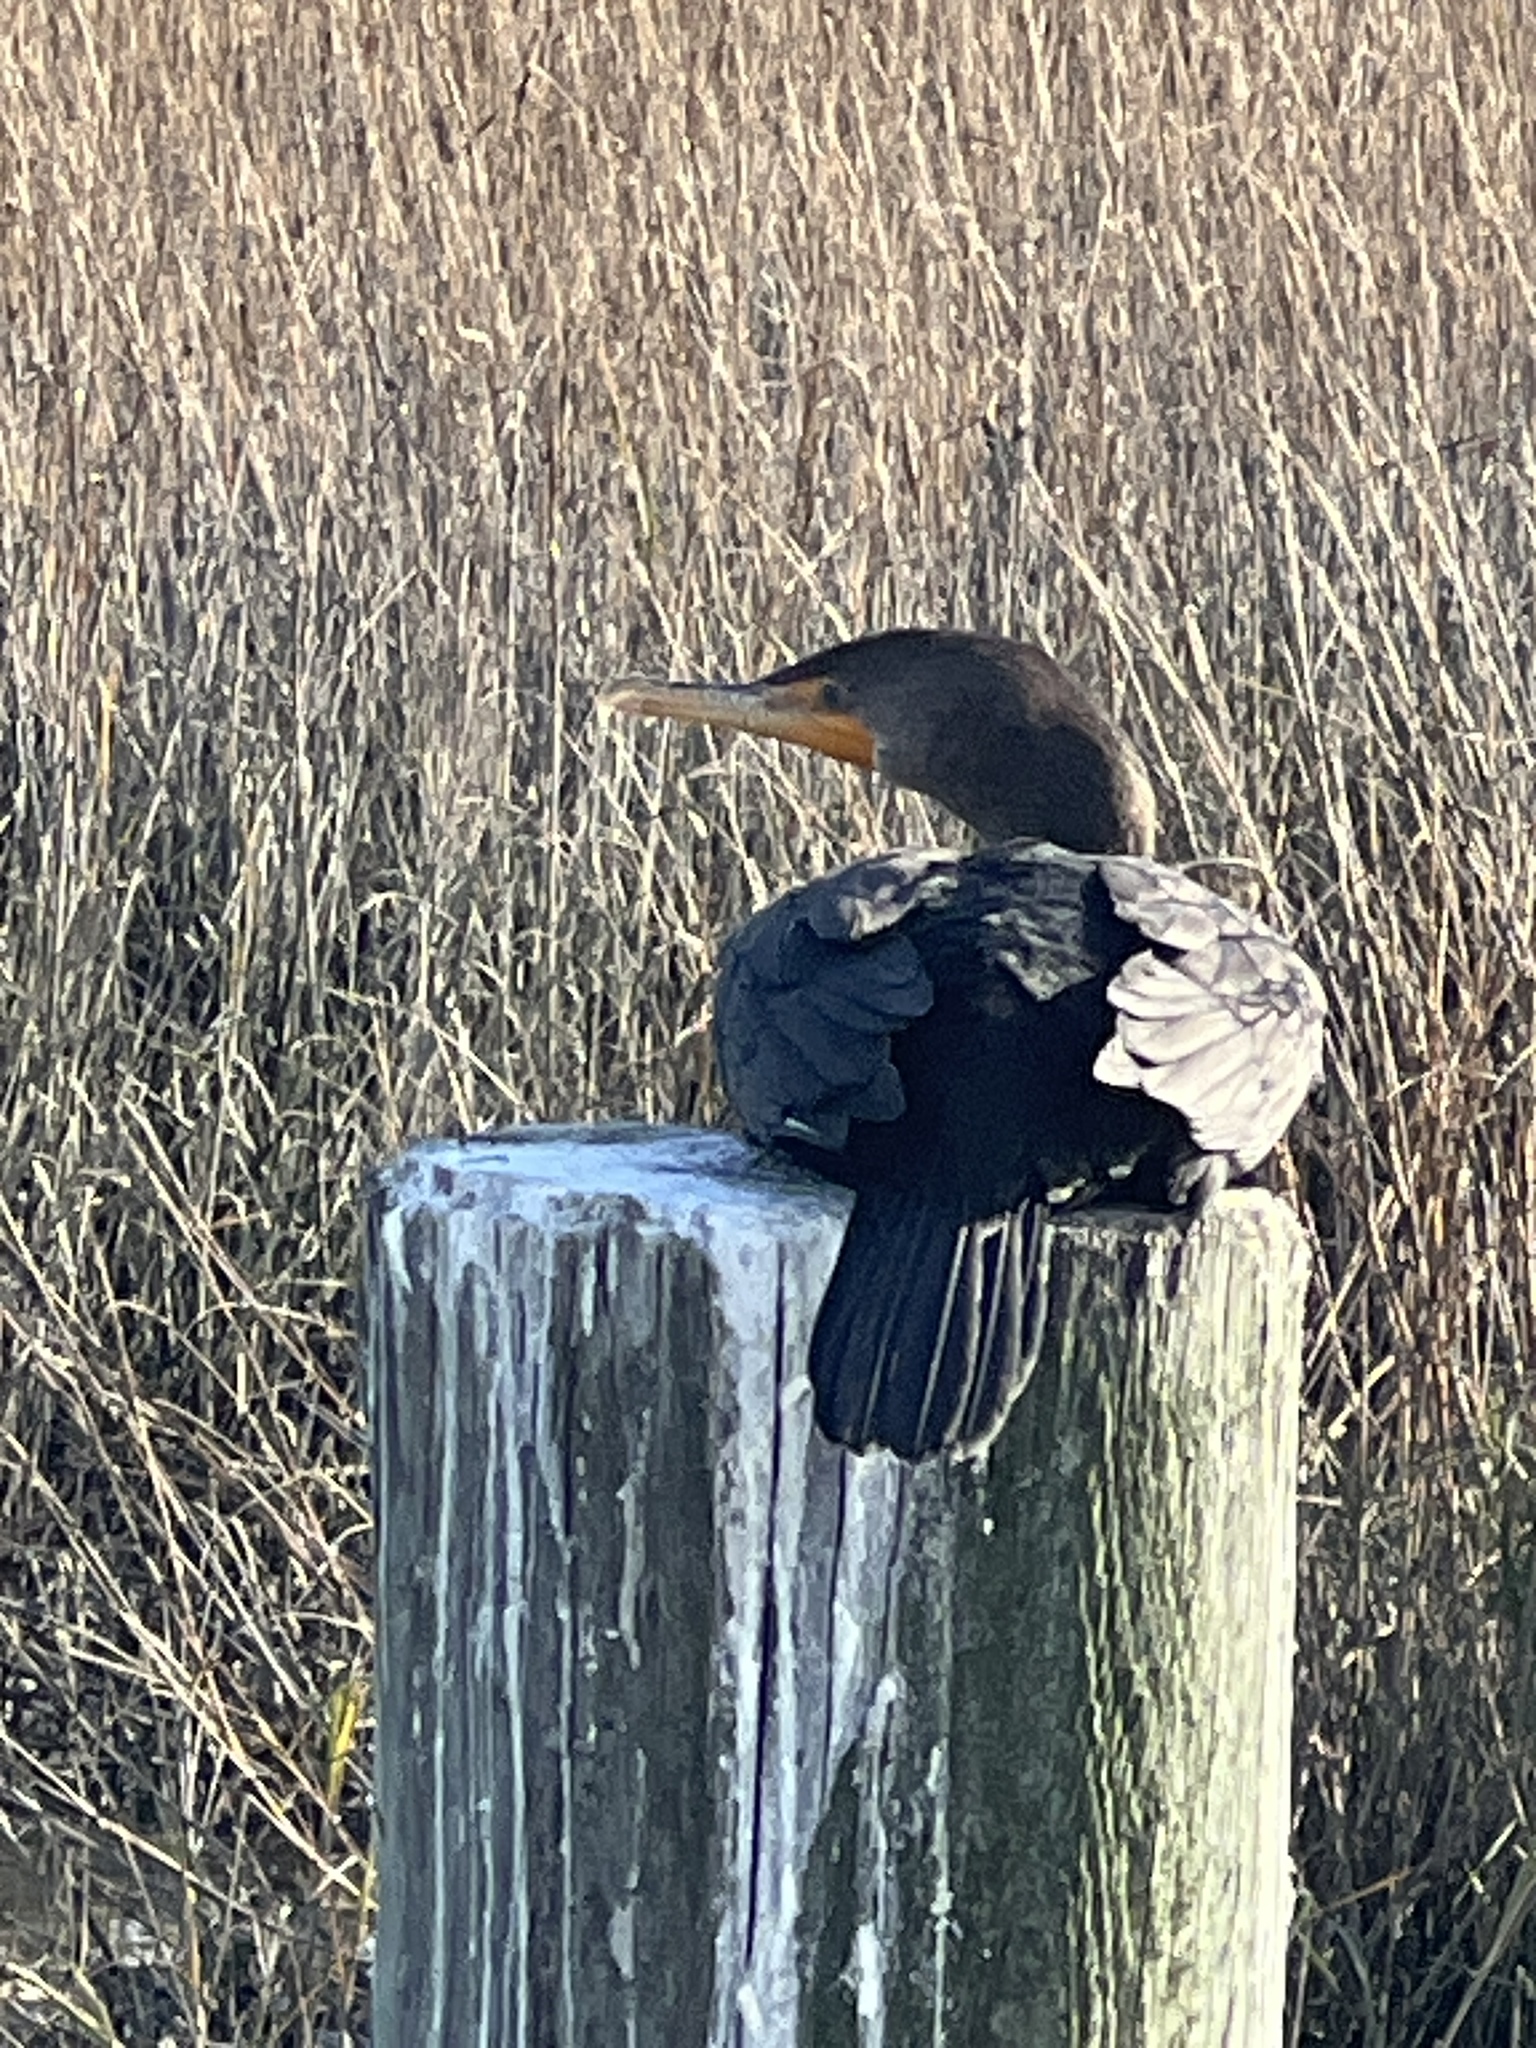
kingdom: Animalia
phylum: Chordata
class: Aves
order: Suliformes
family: Phalacrocoracidae
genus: Phalacrocorax
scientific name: Phalacrocorax auritus
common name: Double-crested cormorant
